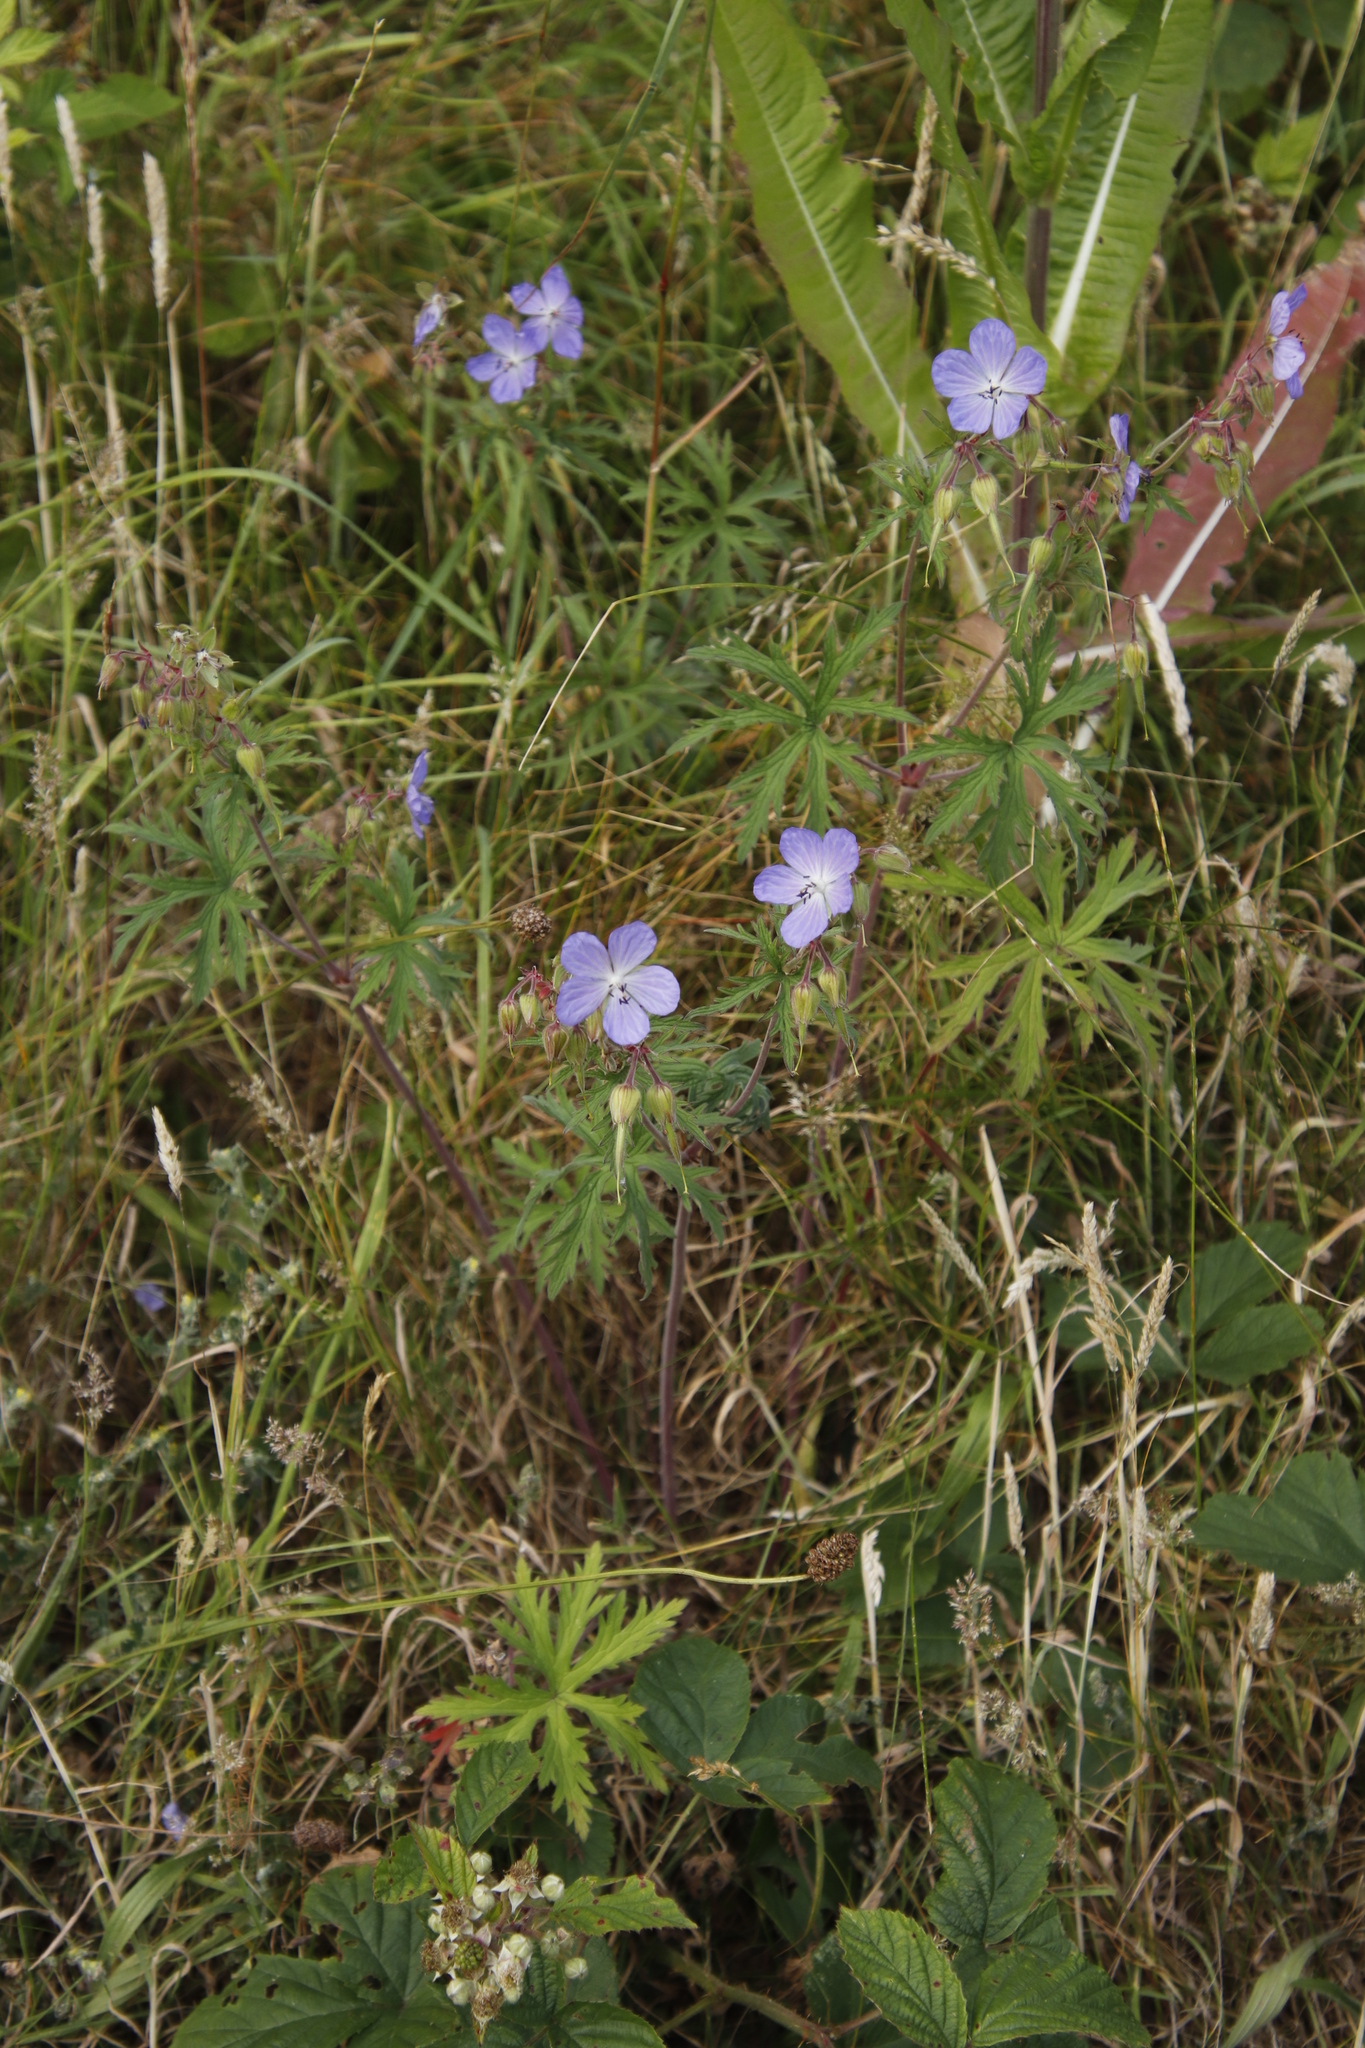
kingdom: Plantae
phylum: Tracheophyta
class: Magnoliopsida
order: Geraniales
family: Geraniaceae
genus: Geranium
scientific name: Geranium pratense
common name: Meadow crane's-bill
